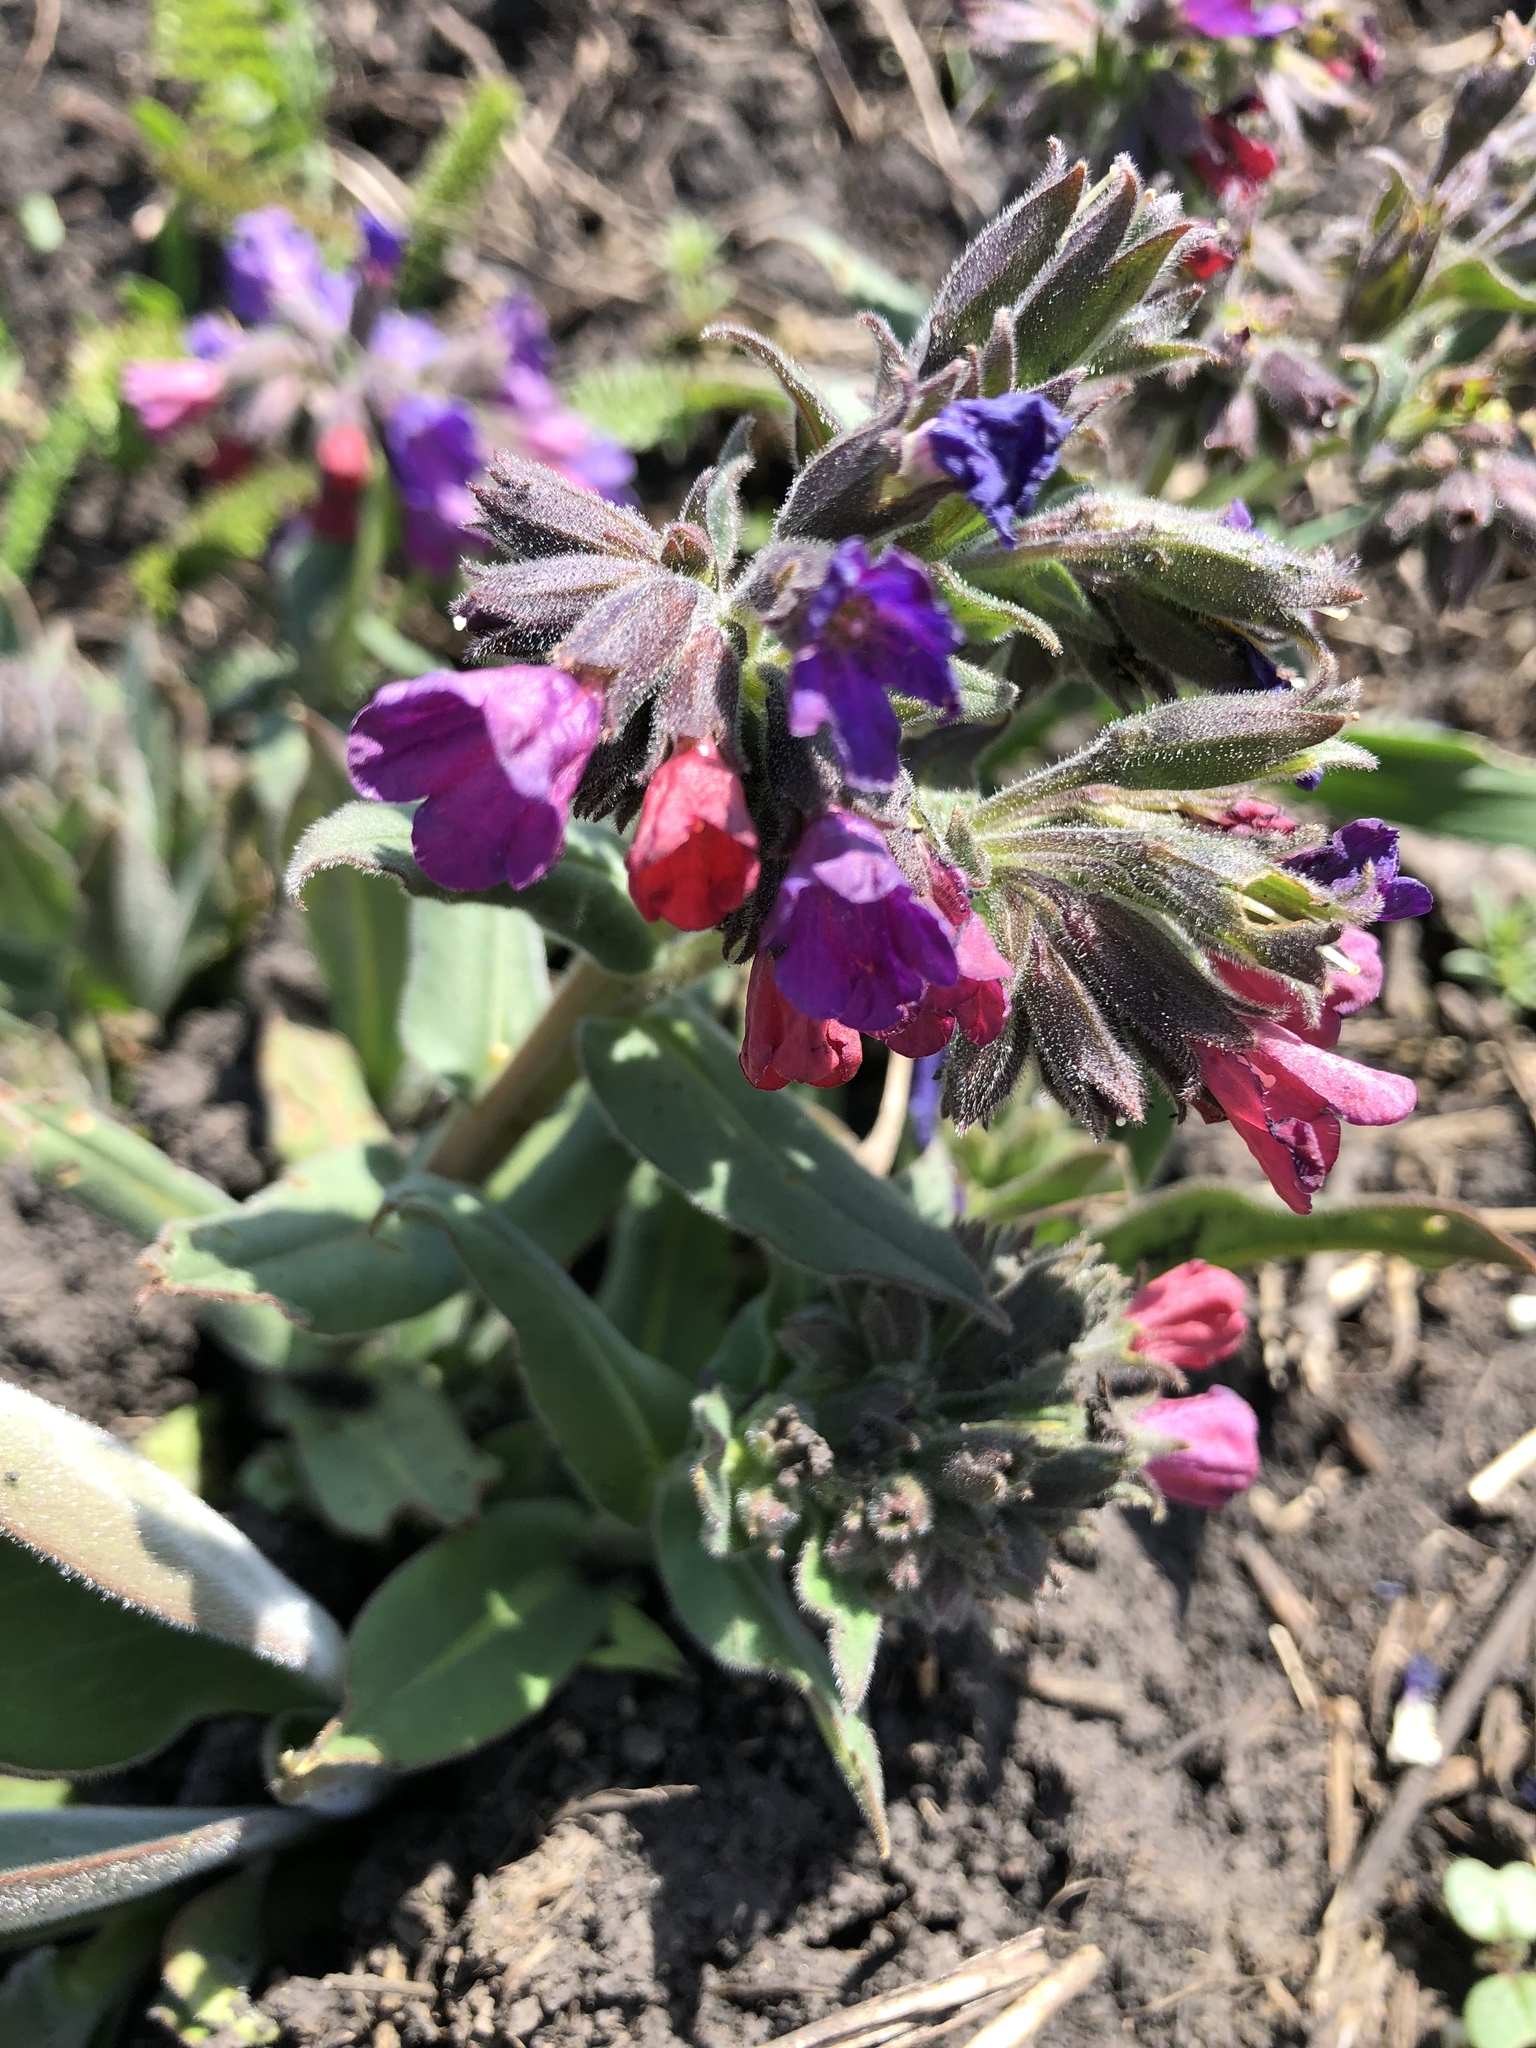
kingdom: Plantae
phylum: Tracheophyta
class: Magnoliopsida
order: Boraginales
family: Boraginaceae
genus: Pulmonaria
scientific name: Pulmonaria obscura
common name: Suffolk lungwort
